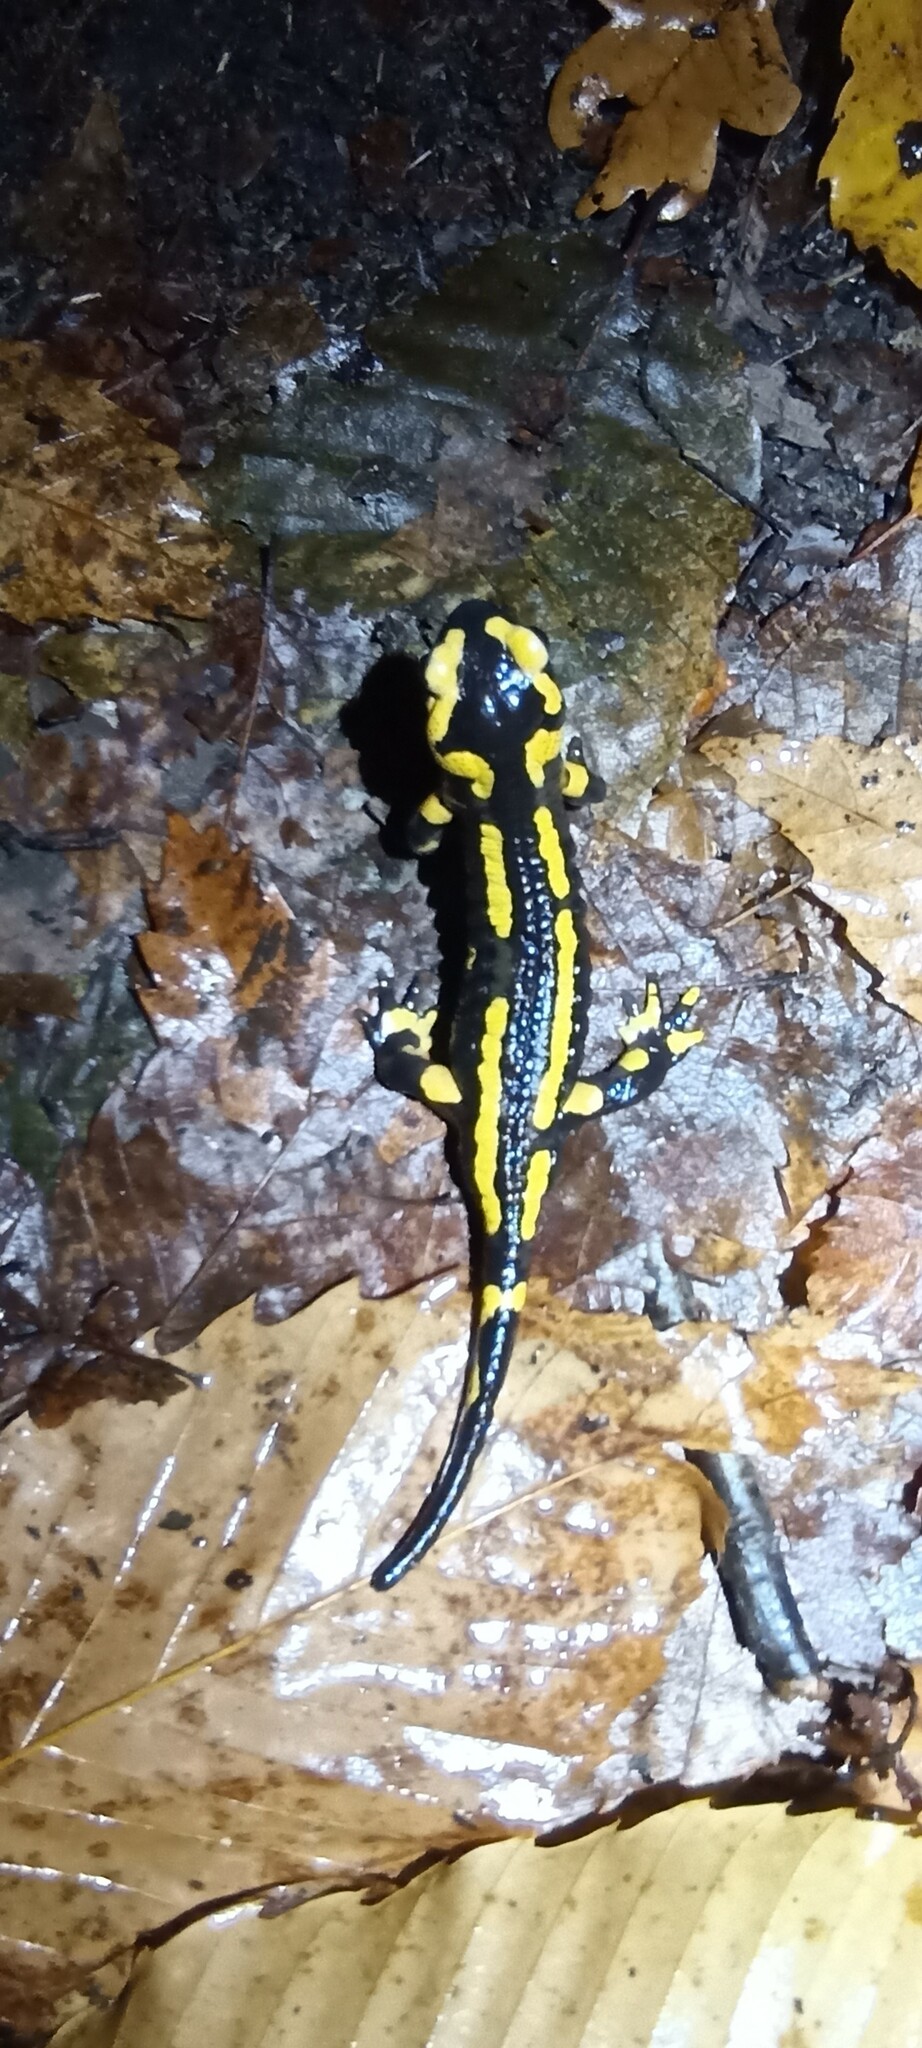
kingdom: Animalia
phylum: Chordata
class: Amphibia
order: Caudata
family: Salamandridae
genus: Salamandra
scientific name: Salamandra salamandra
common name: Fire salamander
